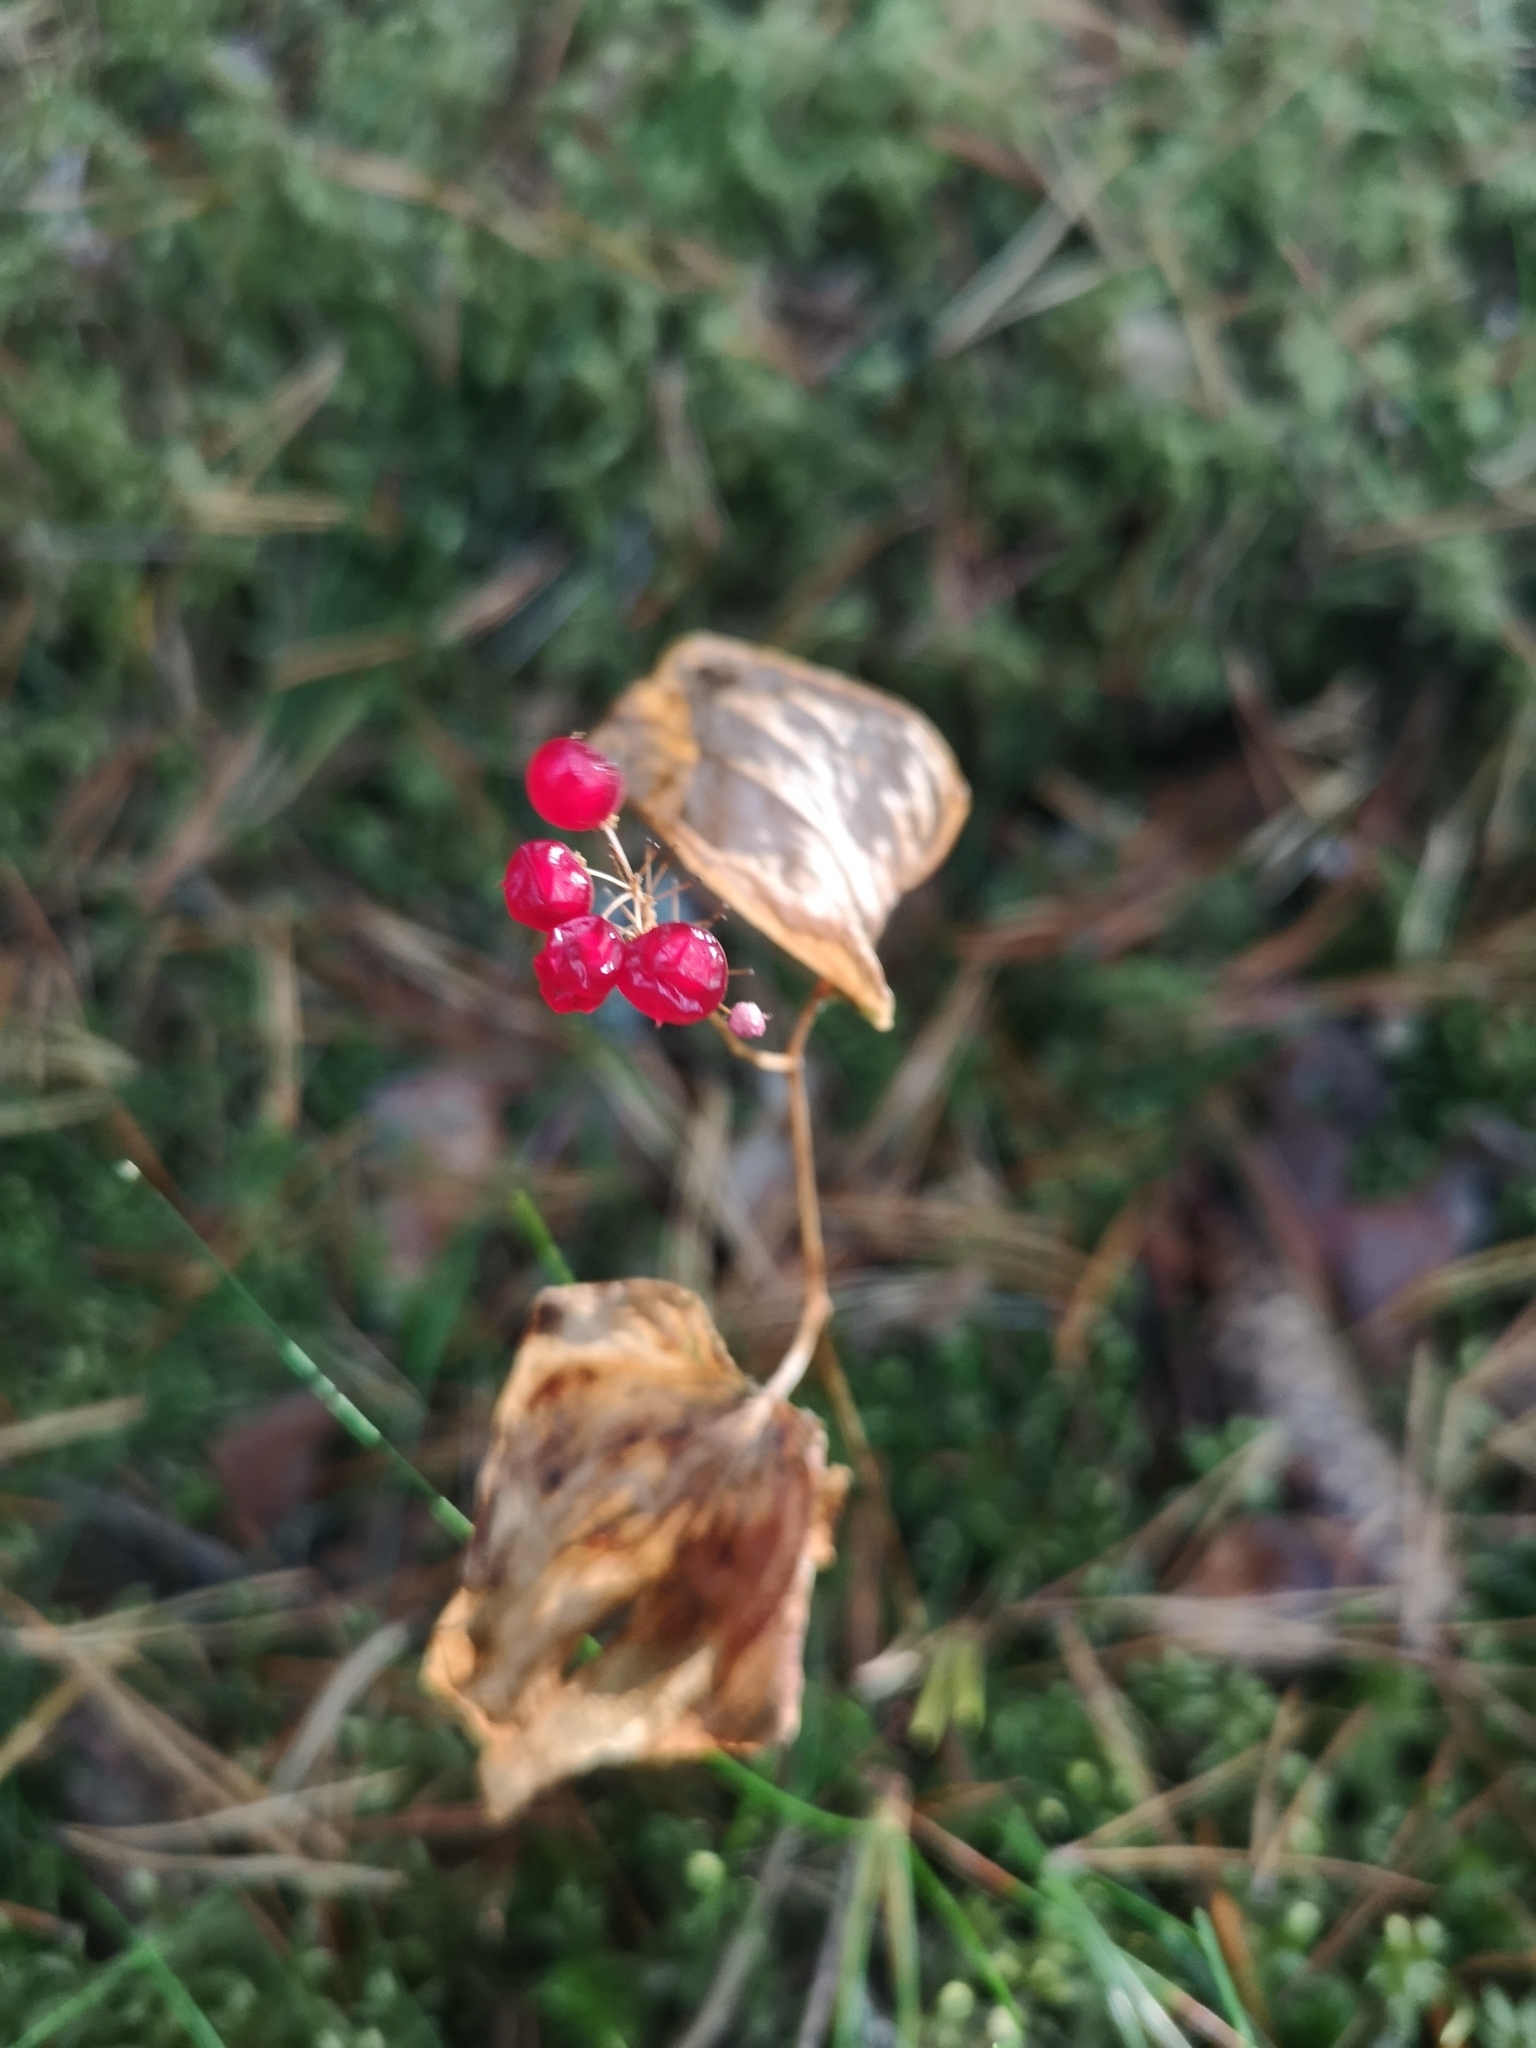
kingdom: Plantae
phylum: Tracheophyta
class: Liliopsida
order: Asparagales
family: Asparagaceae
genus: Maianthemum
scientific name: Maianthemum bifolium
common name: May lily
